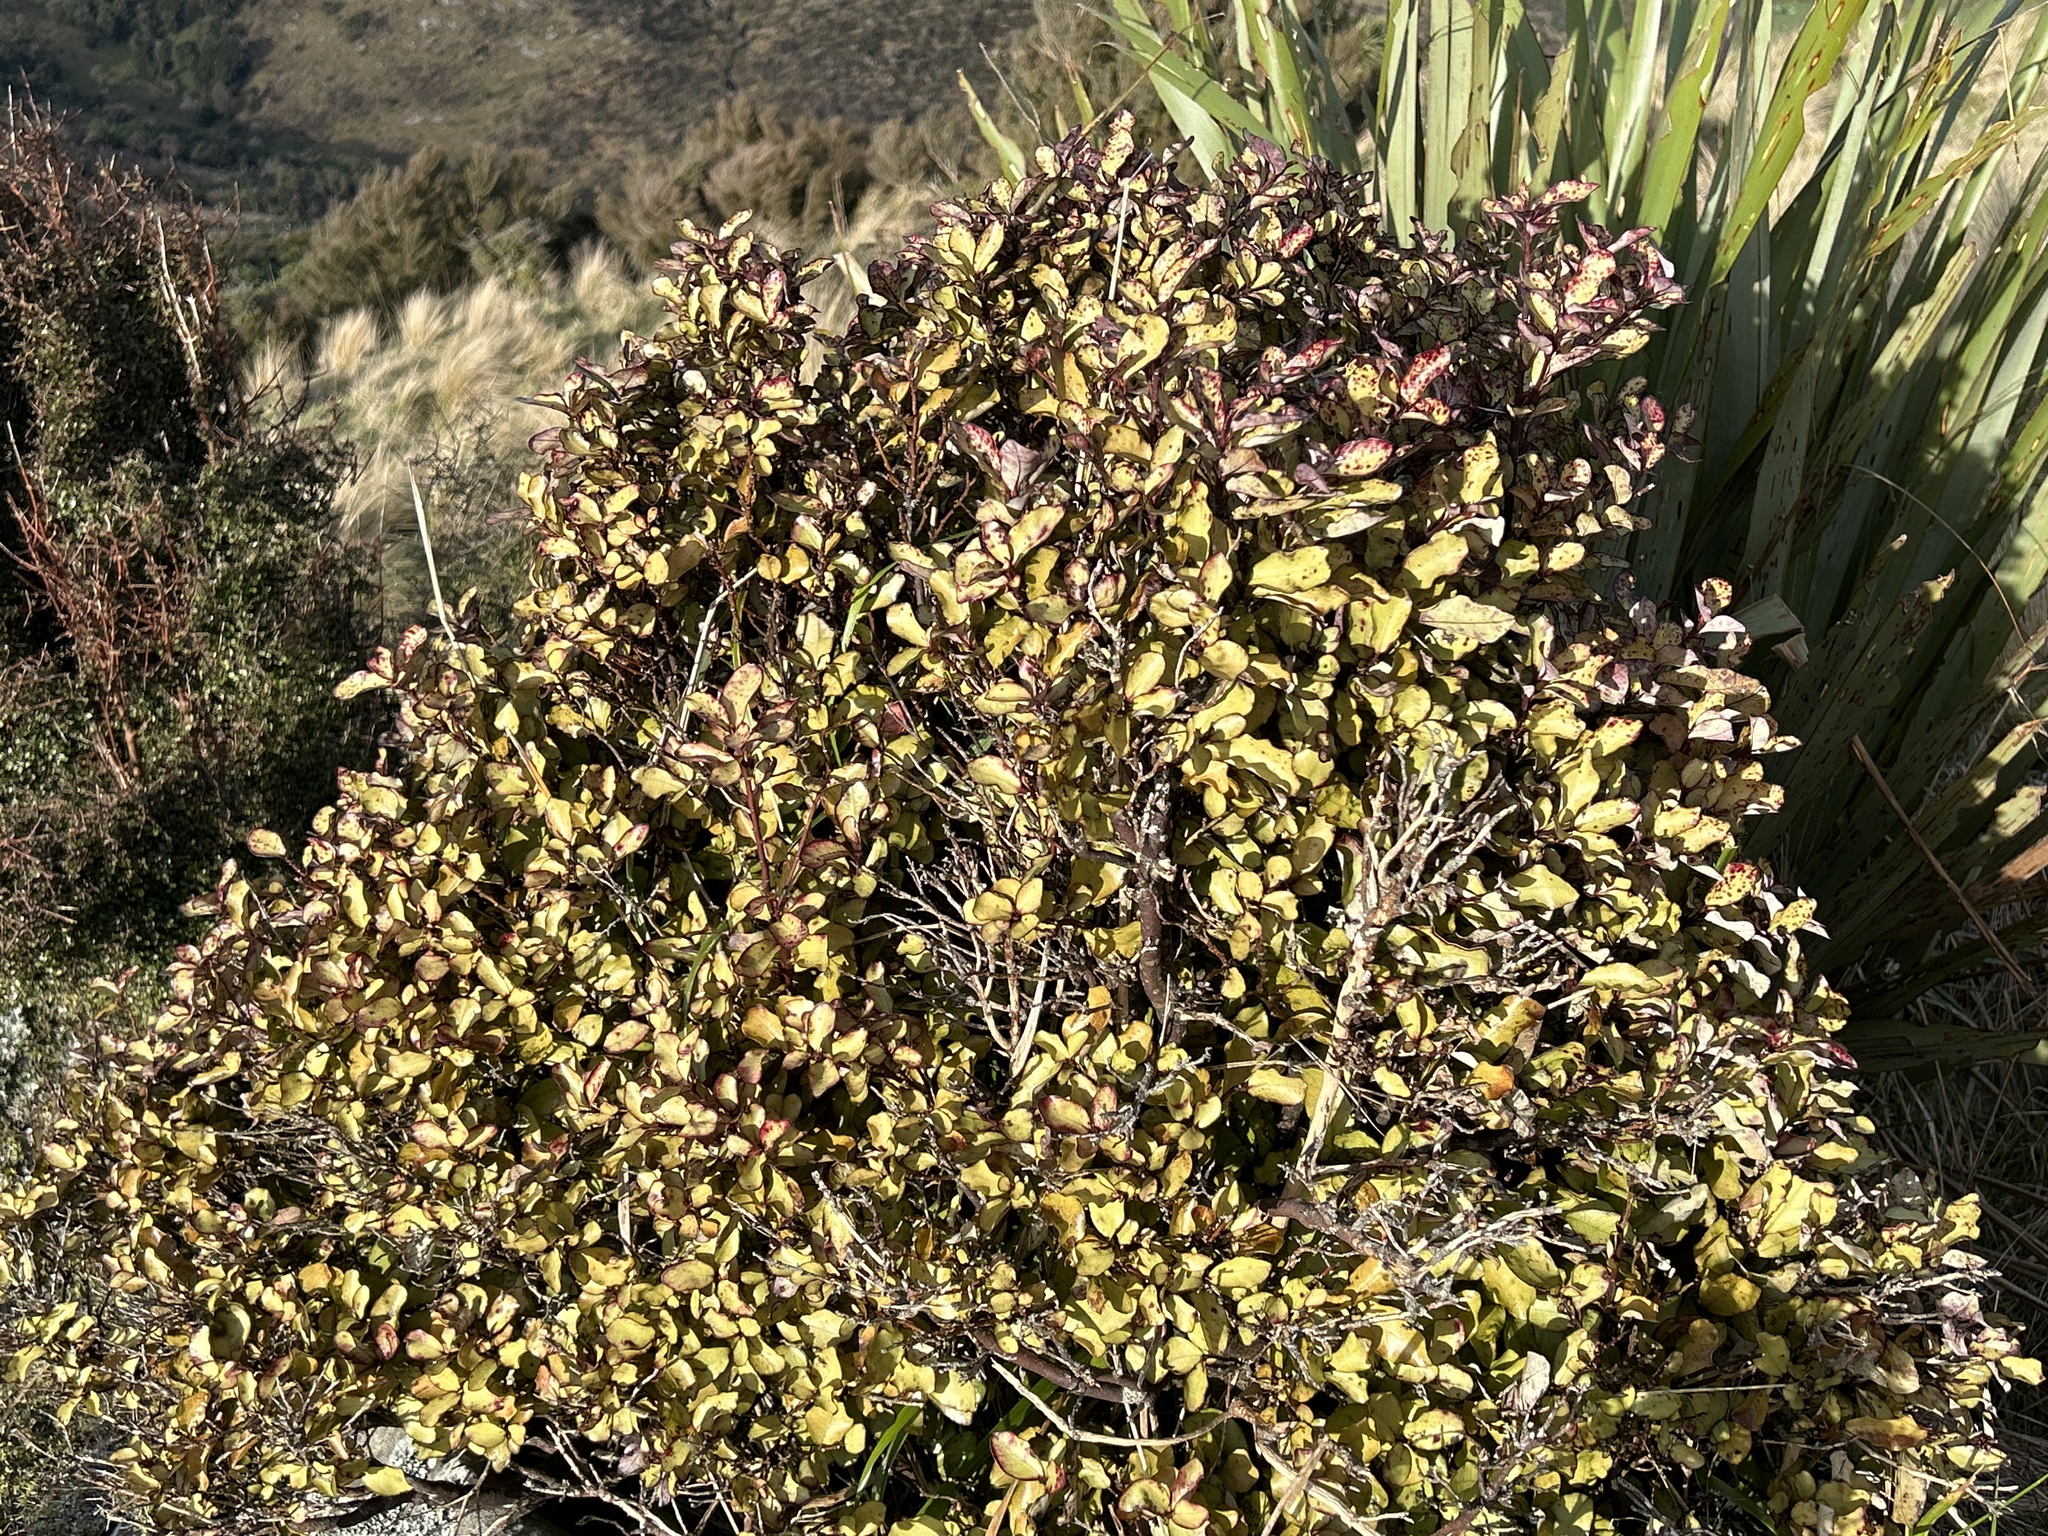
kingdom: Plantae
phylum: Tracheophyta
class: Magnoliopsida
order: Canellales
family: Winteraceae
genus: Pseudowintera
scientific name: Pseudowintera colorata
